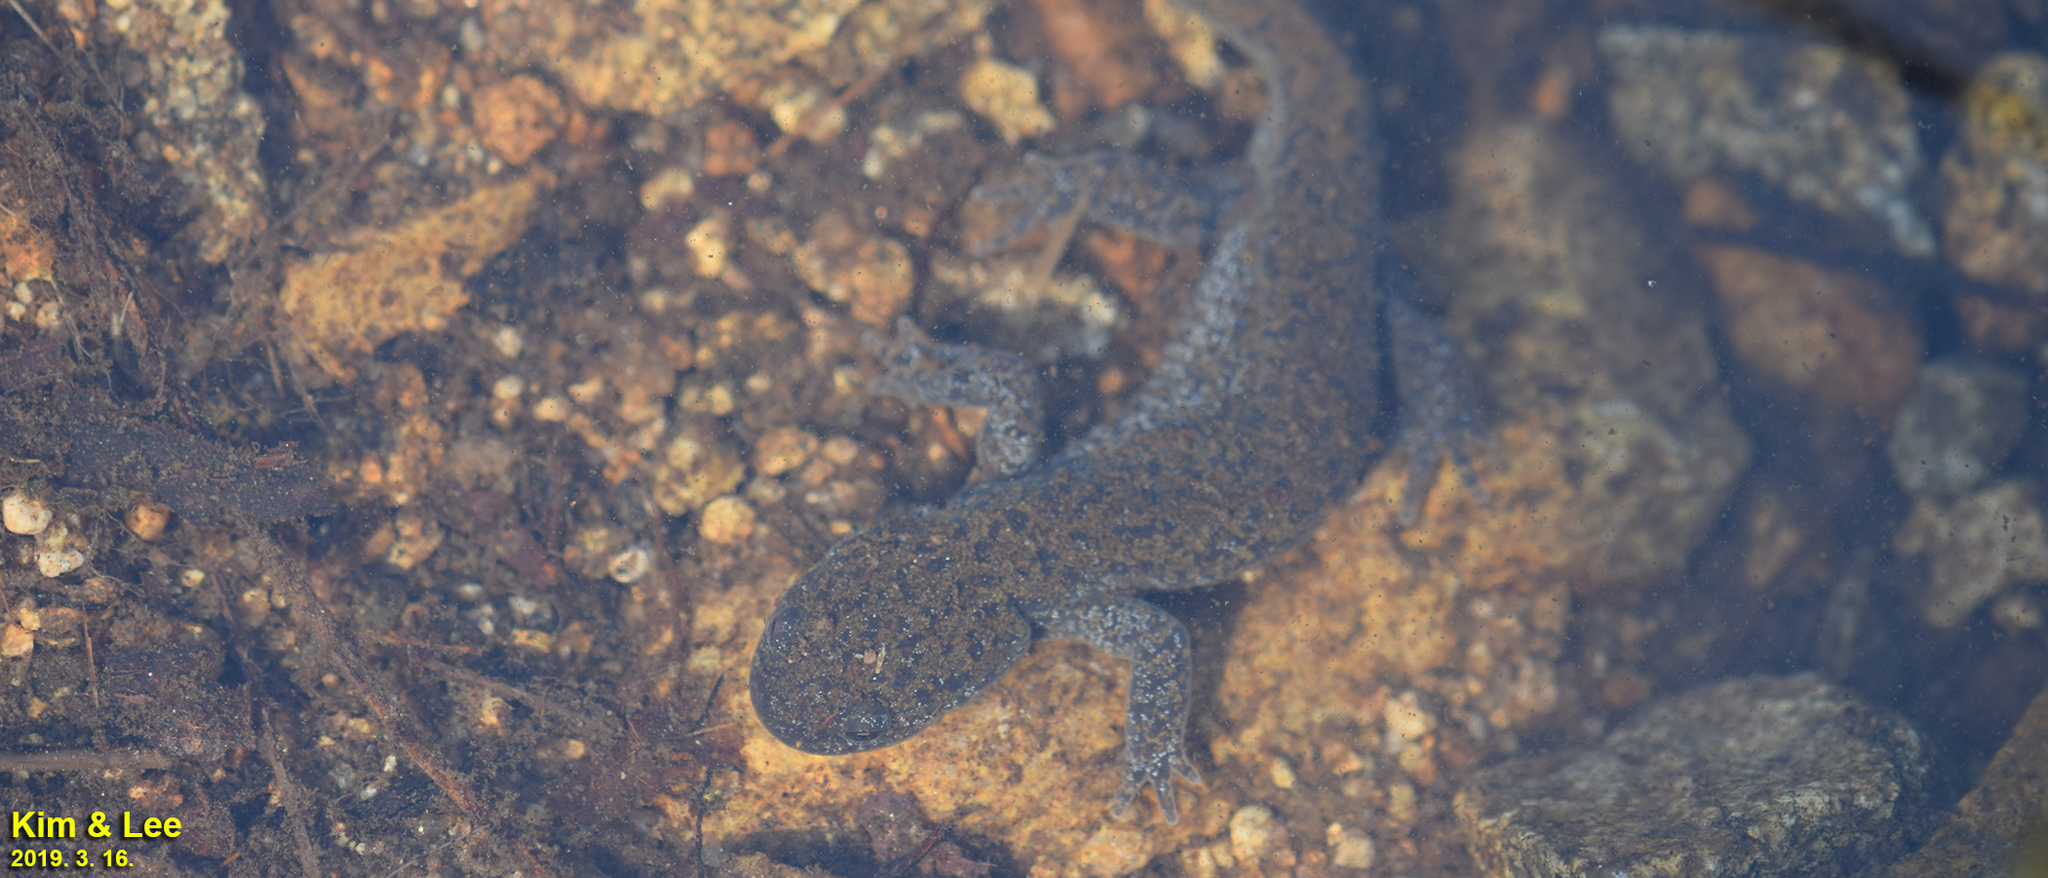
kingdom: Animalia
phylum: Chordata
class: Amphibia
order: Caudata
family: Hynobiidae
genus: Hynobius
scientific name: Hynobius leechii
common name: Gensan salamander
